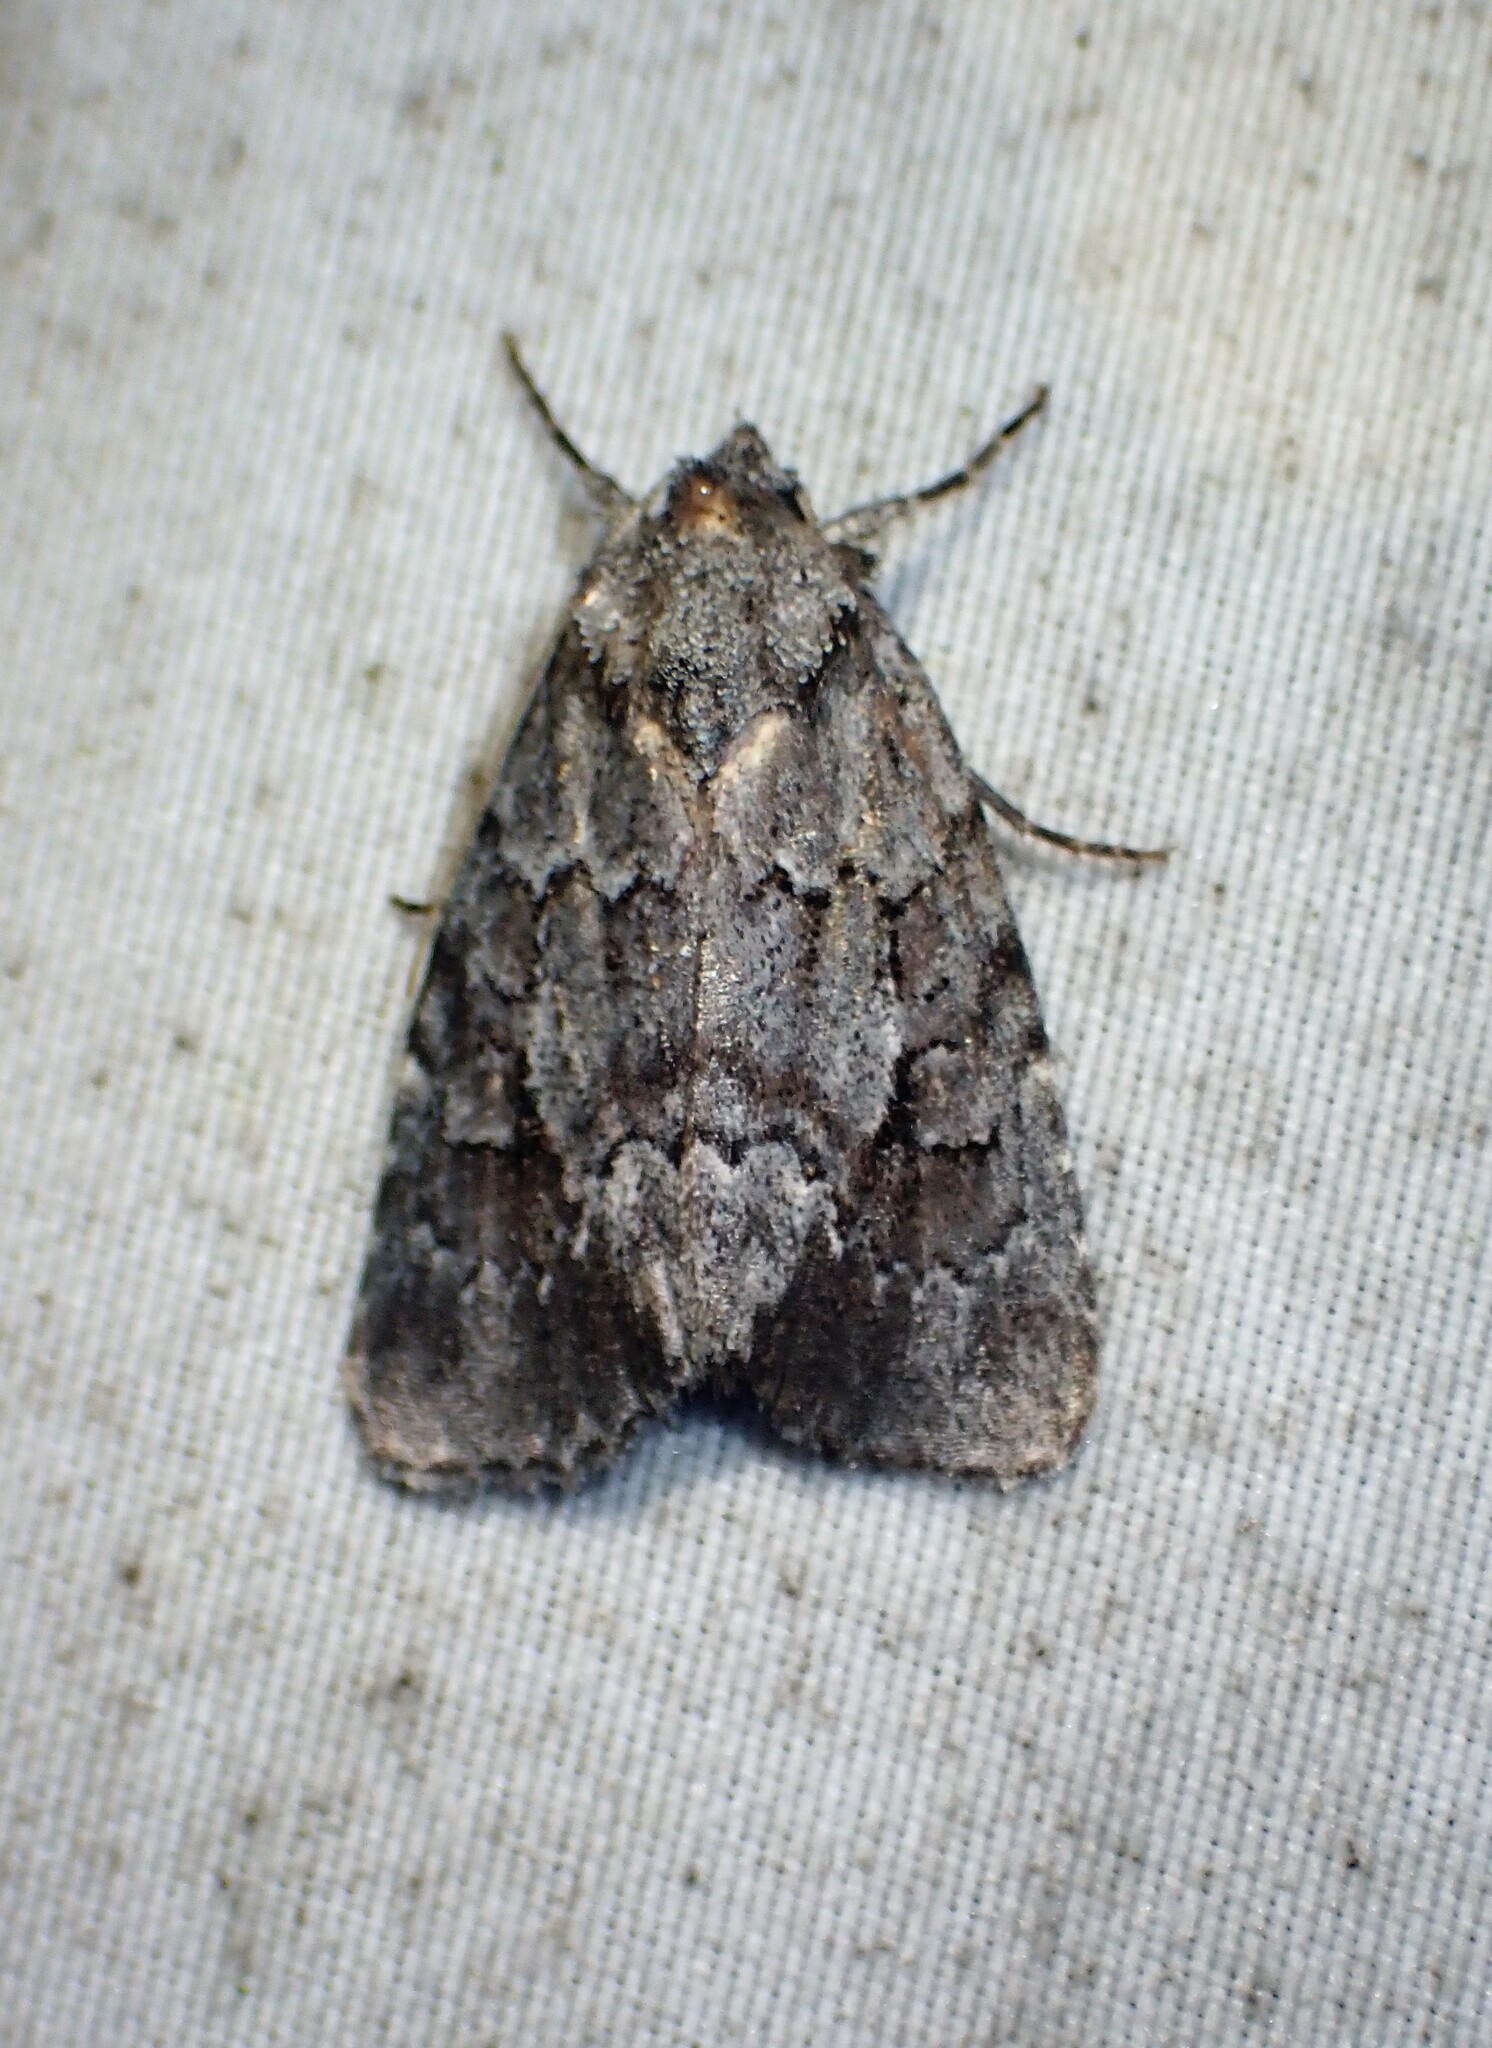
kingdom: Animalia
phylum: Arthropoda
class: Insecta
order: Lepidoptera
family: Noctuidae
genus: Sympistis
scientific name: Sympistis dentata
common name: Blueberry sallow
